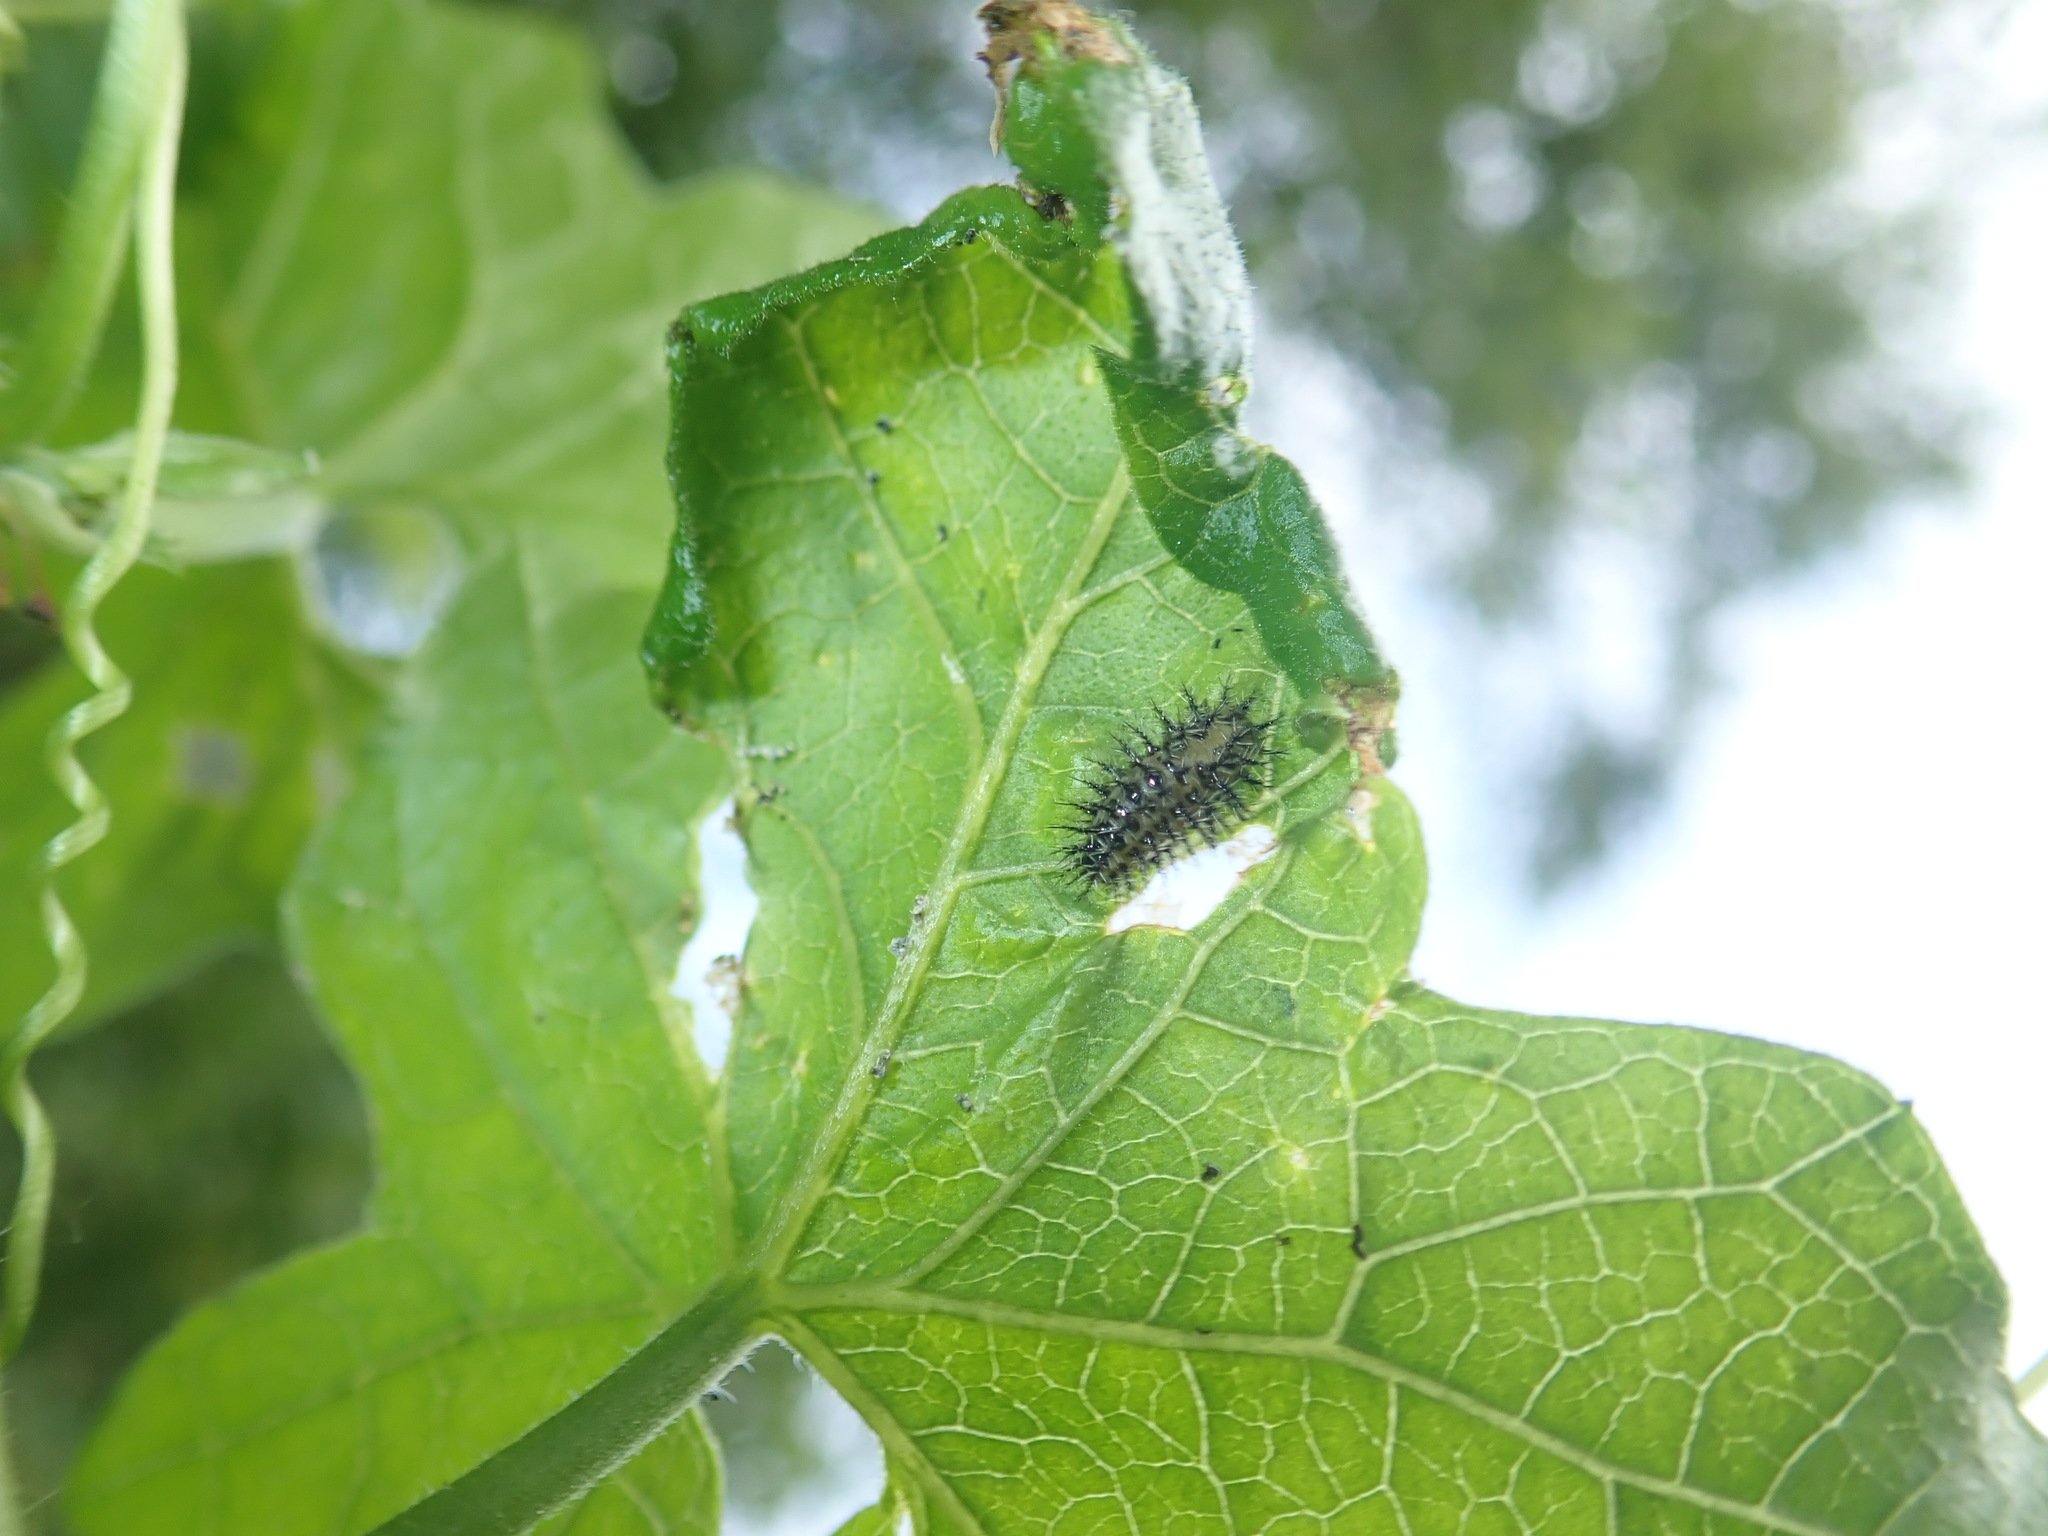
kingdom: Animalia
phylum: Arthropoda
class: Insecta
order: Coleoptera
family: Coccinellidae
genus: Henosepilachna
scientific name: Henosepilachna argus
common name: Bryony ladybird
